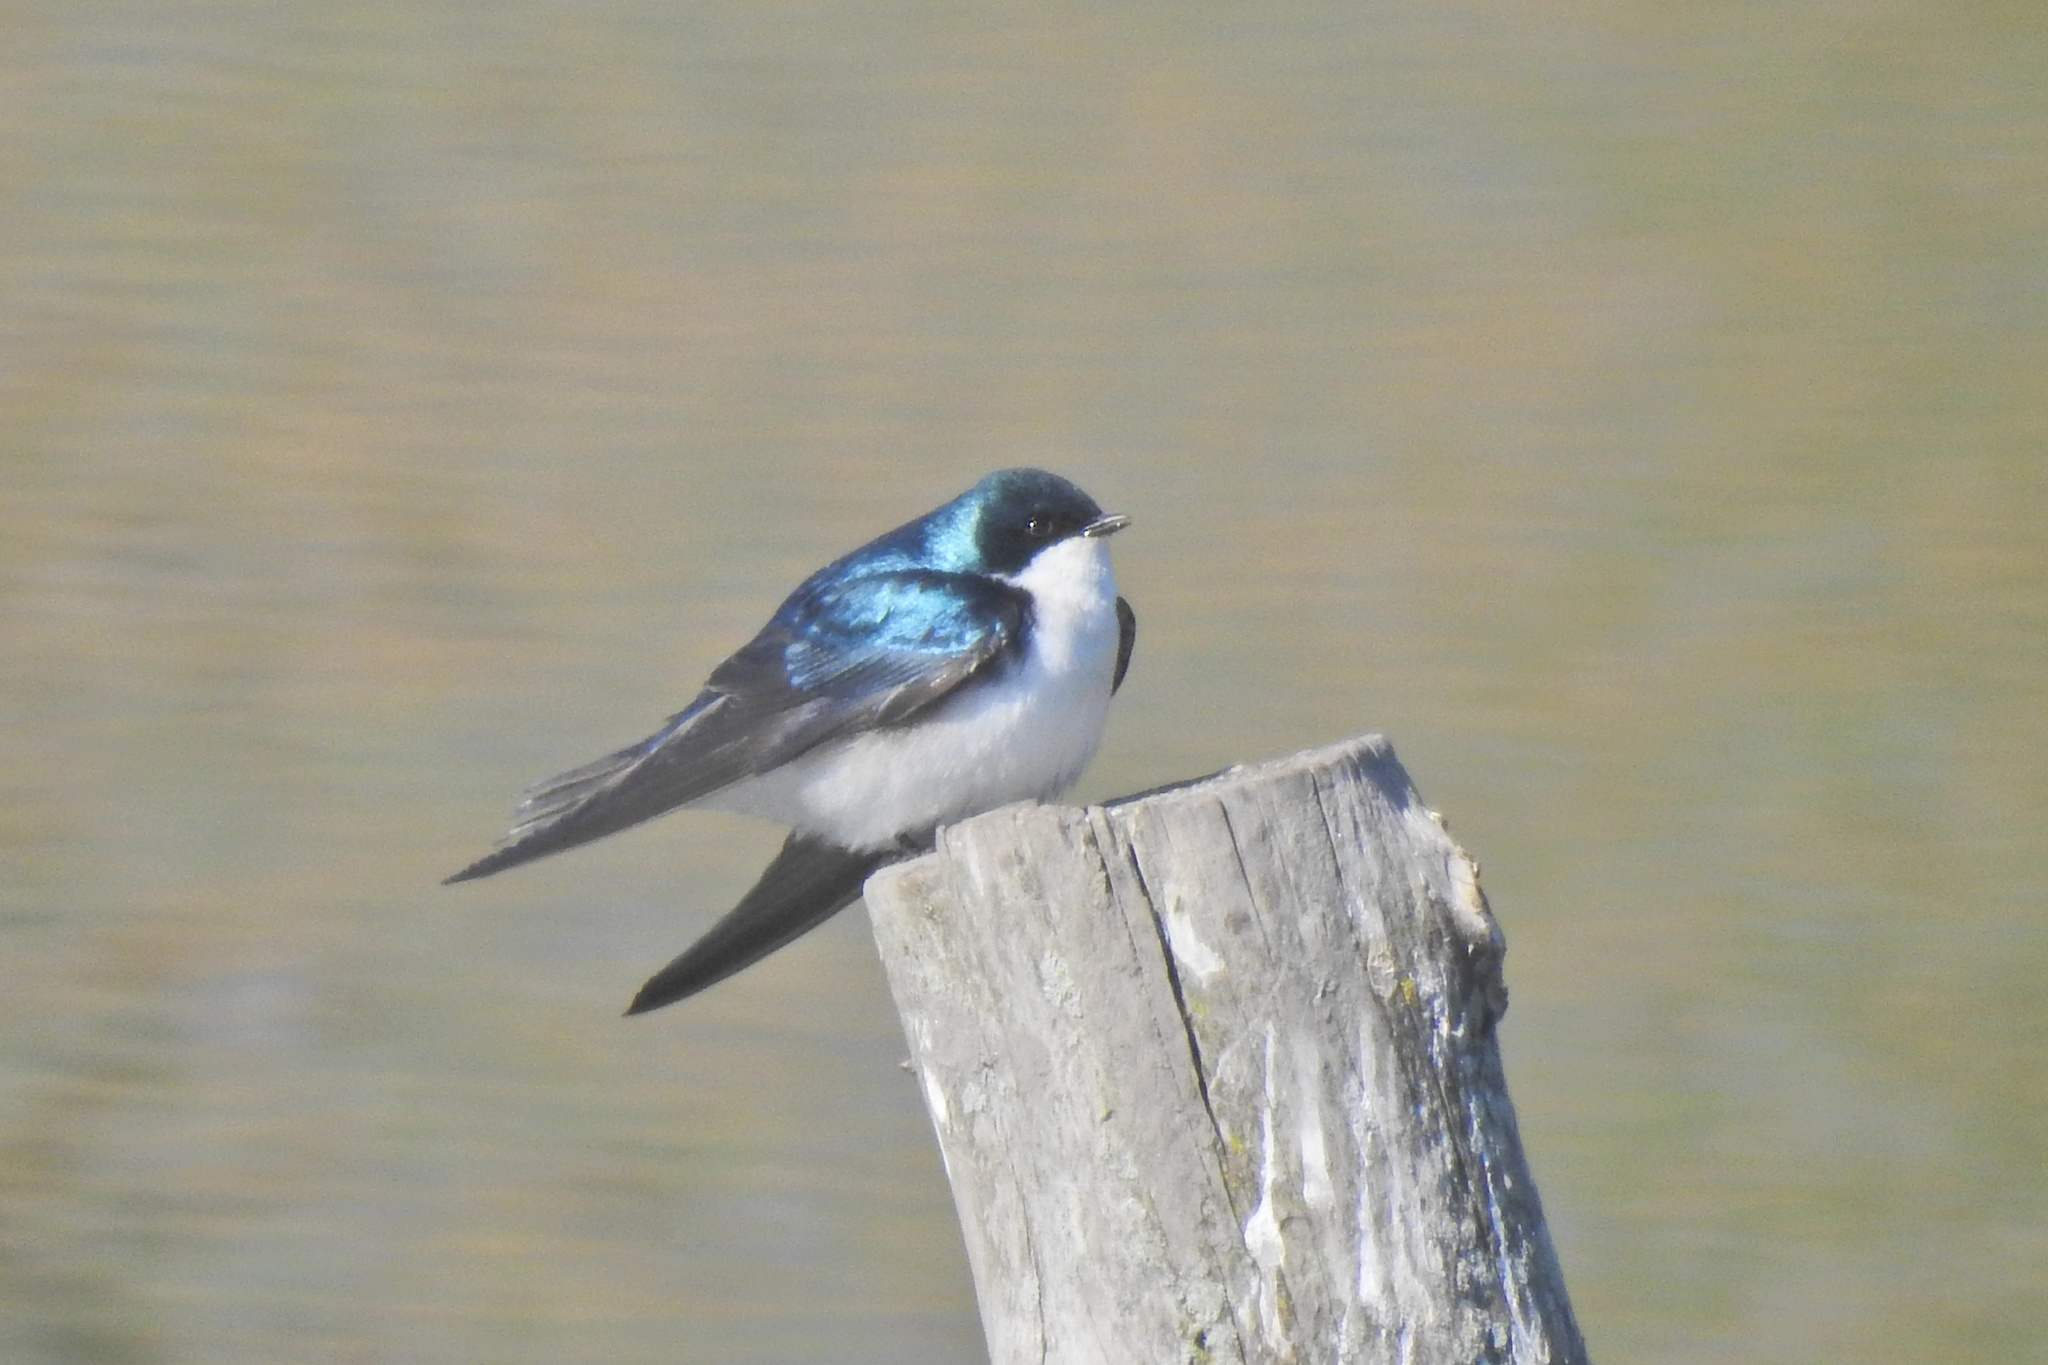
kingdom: Animalia
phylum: Chordata
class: Aves
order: Passeriformes
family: Hirundinidae
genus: Tachycineta
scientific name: Tachycineta bicolor
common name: Tree swallow
